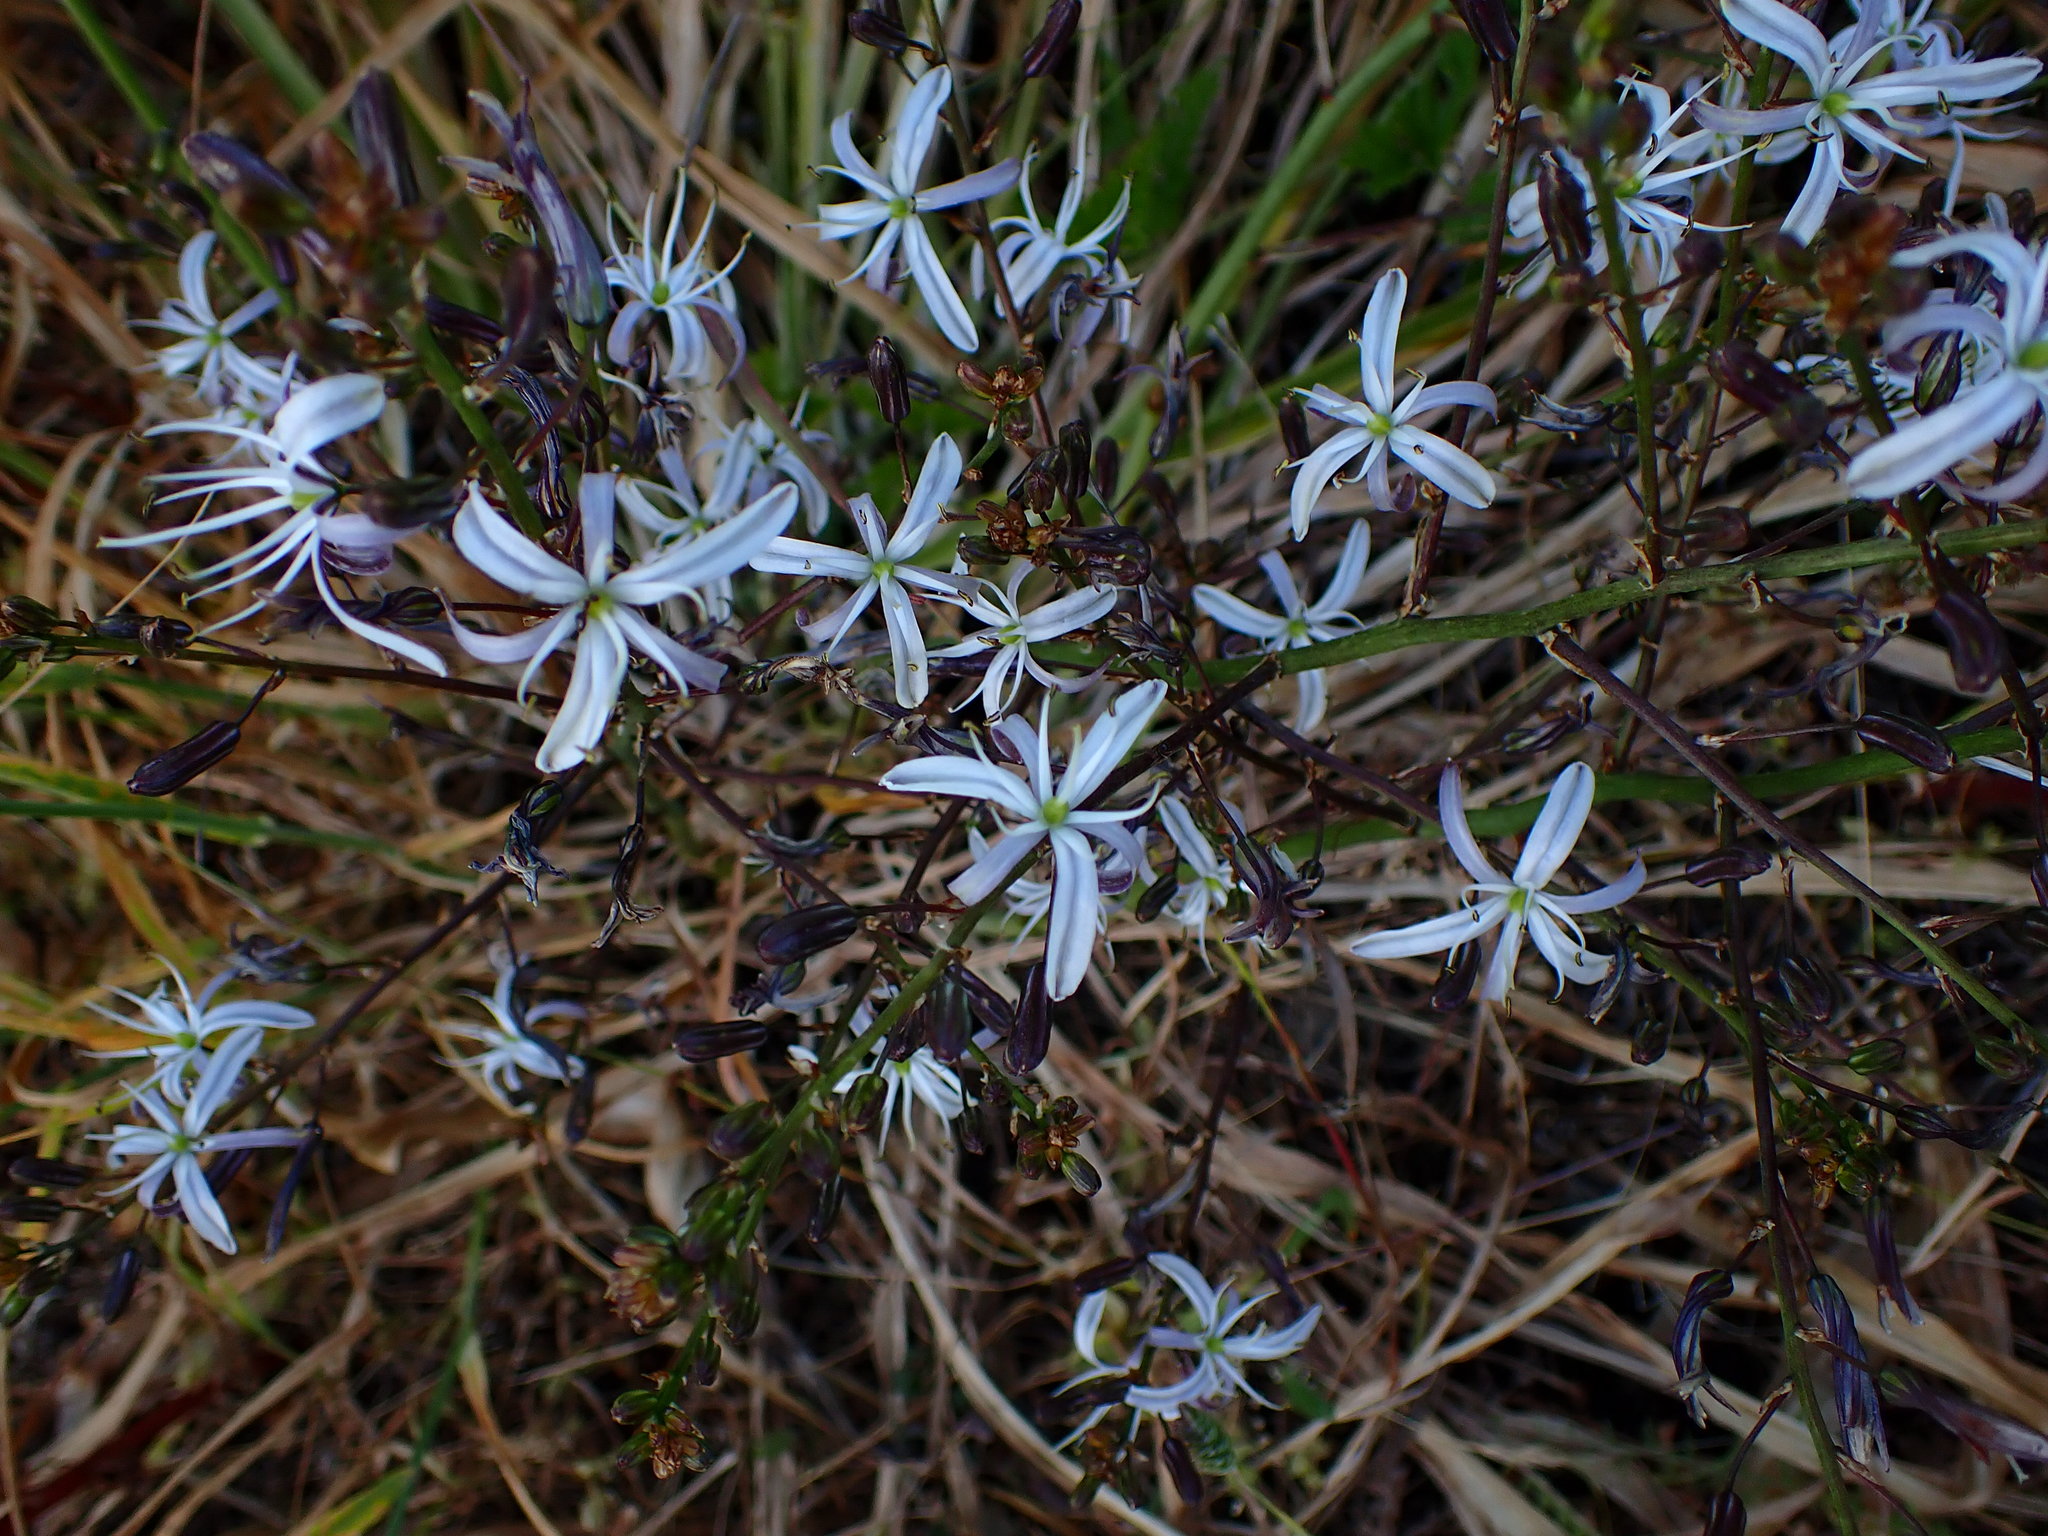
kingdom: Plantae
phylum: Tracheophyta
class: Liliopsida
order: Asparagales
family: Asparagaceae
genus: Chlorogalum
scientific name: Chlorogalum pomeridianum
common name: Amole
